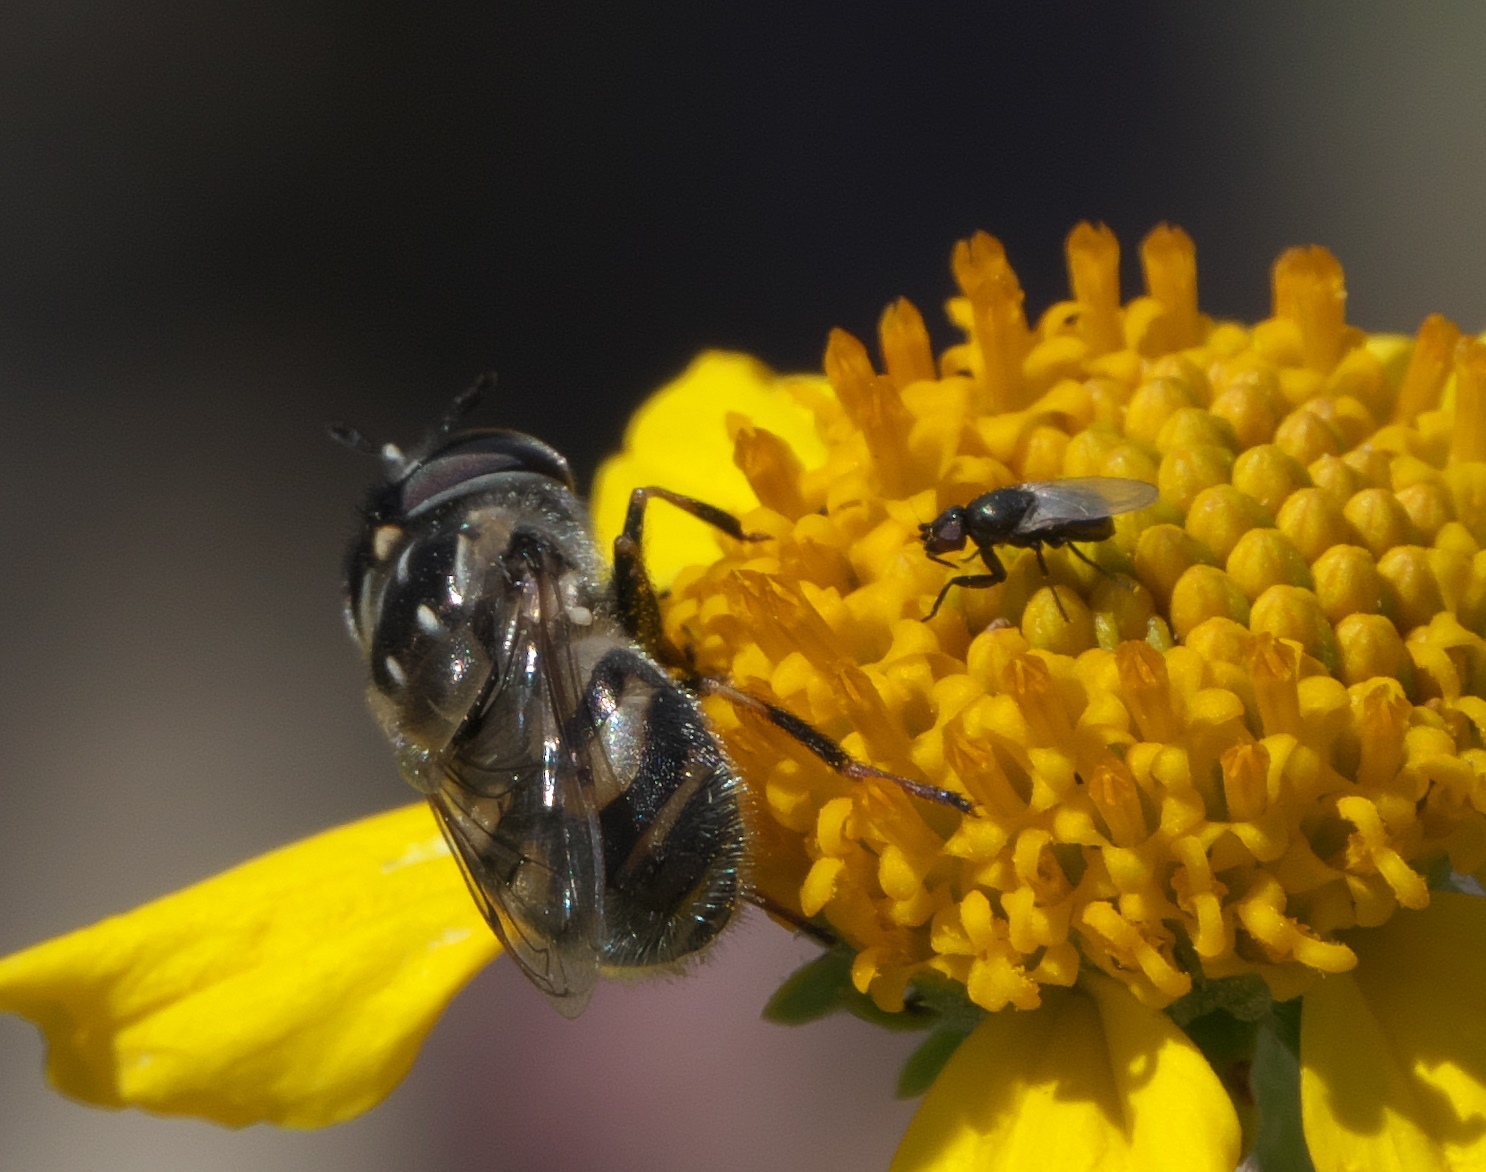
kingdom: Animalia
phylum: Arthropoda
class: Insecta
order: Diptera
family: Syrphidae
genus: Copestylum
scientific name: Copestylum marginatum
